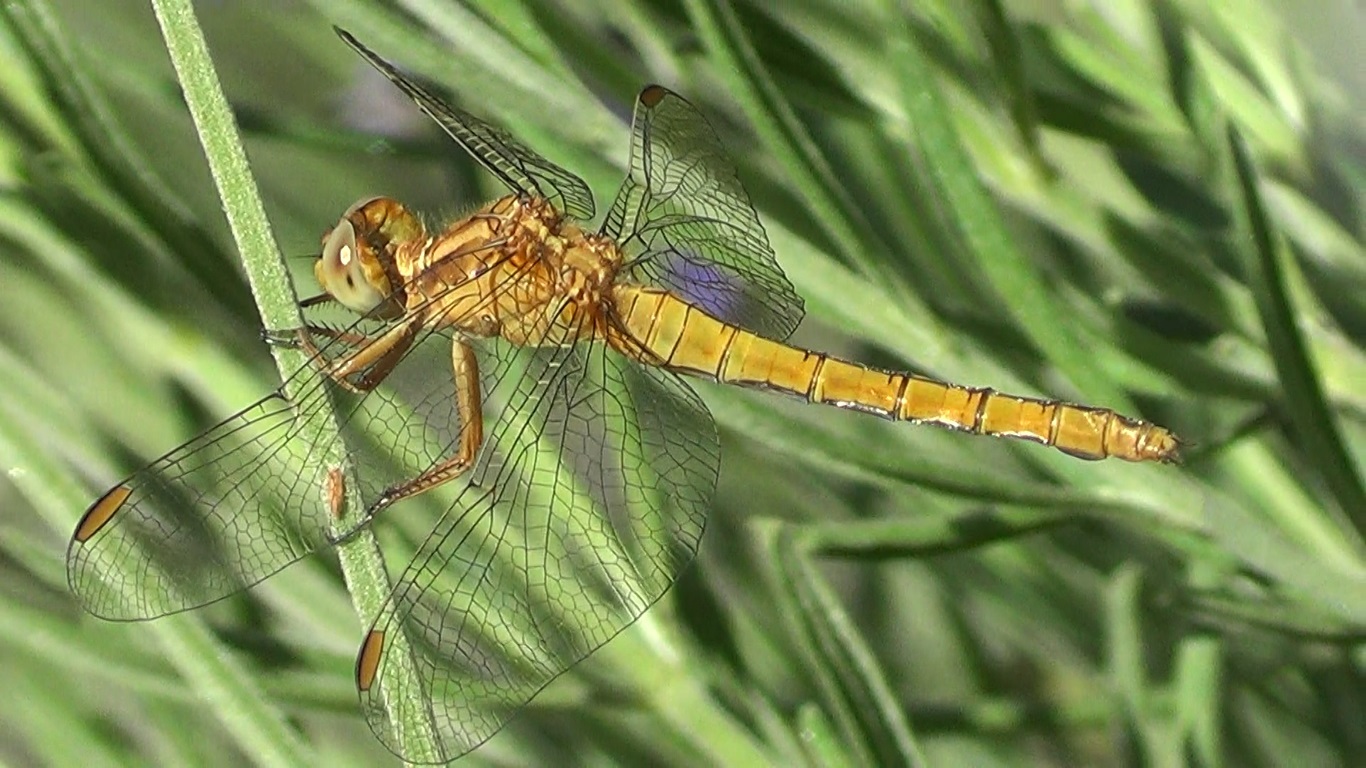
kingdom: Animalia
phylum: Arthropoda
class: Insecta
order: Odonata
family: Libellulidae
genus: Orthetrum
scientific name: Orthetrum coerulescens
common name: Keeled skimmer
